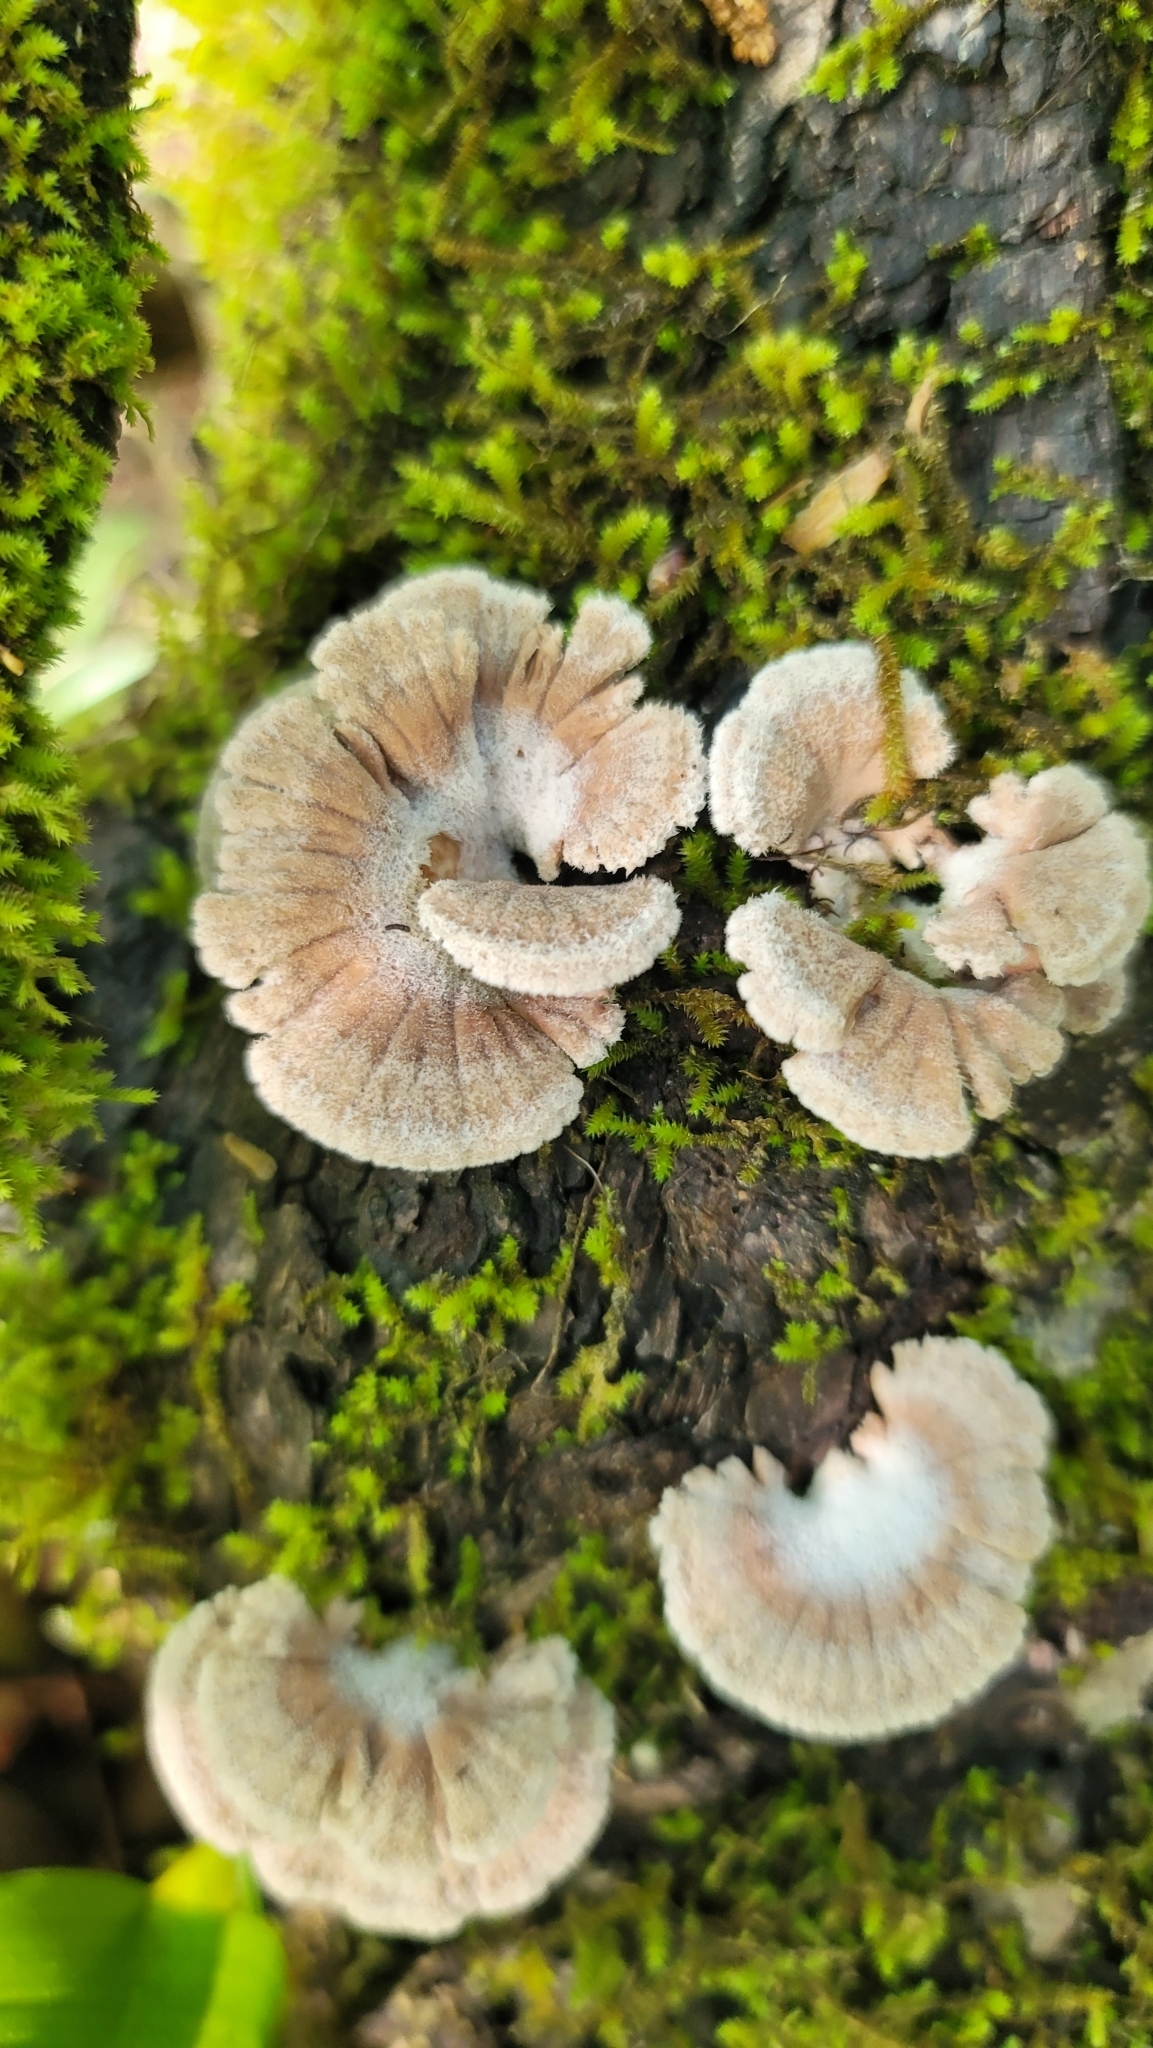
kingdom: Fungi
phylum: Basidiomycota
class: Agaricomycetes
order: Agaricales
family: Schizophyllaceae
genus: Schizophyllum
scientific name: Schizophyllum commune
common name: Common porecrust
